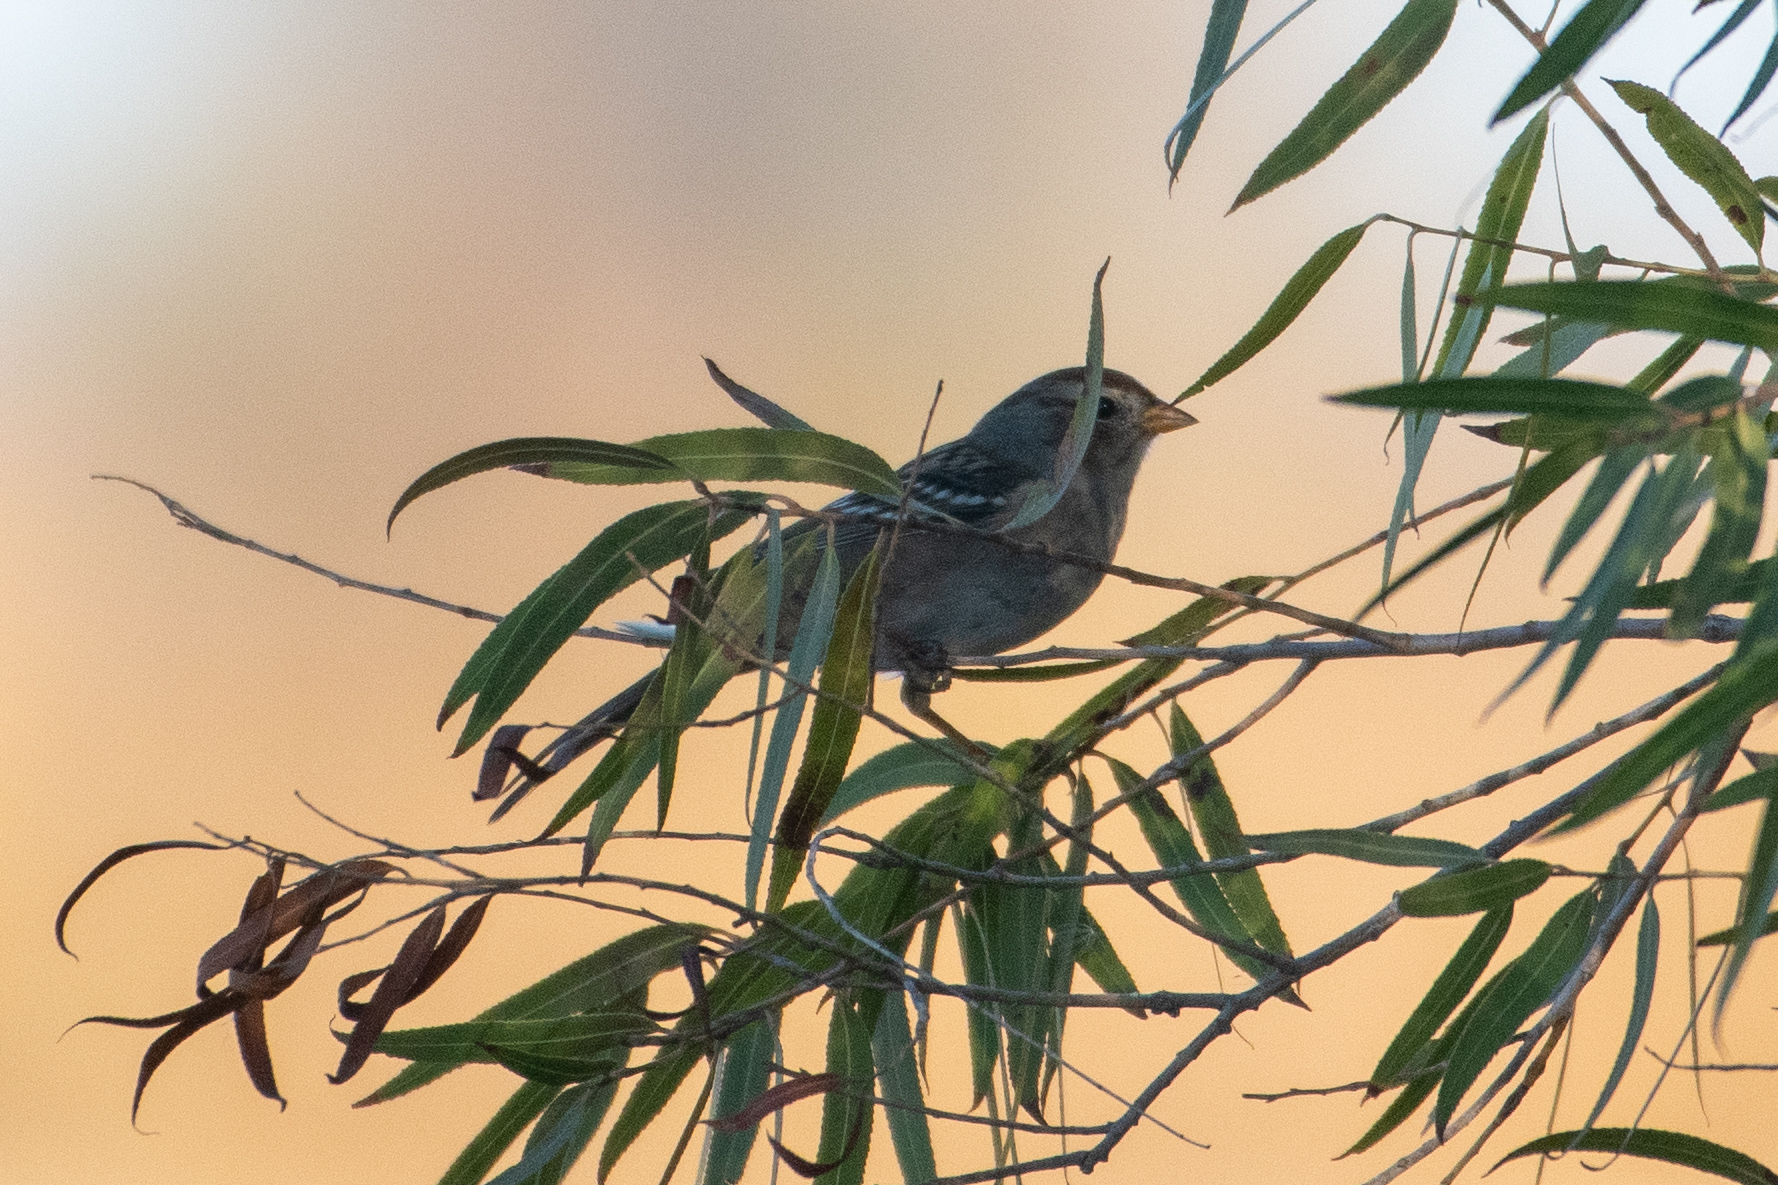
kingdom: Animalia
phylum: Chordata
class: Aves
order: Passeriformes
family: Passerellidae
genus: Zonotrichia
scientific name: Zonotrichia leucophrys
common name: White-crowned sparrow
